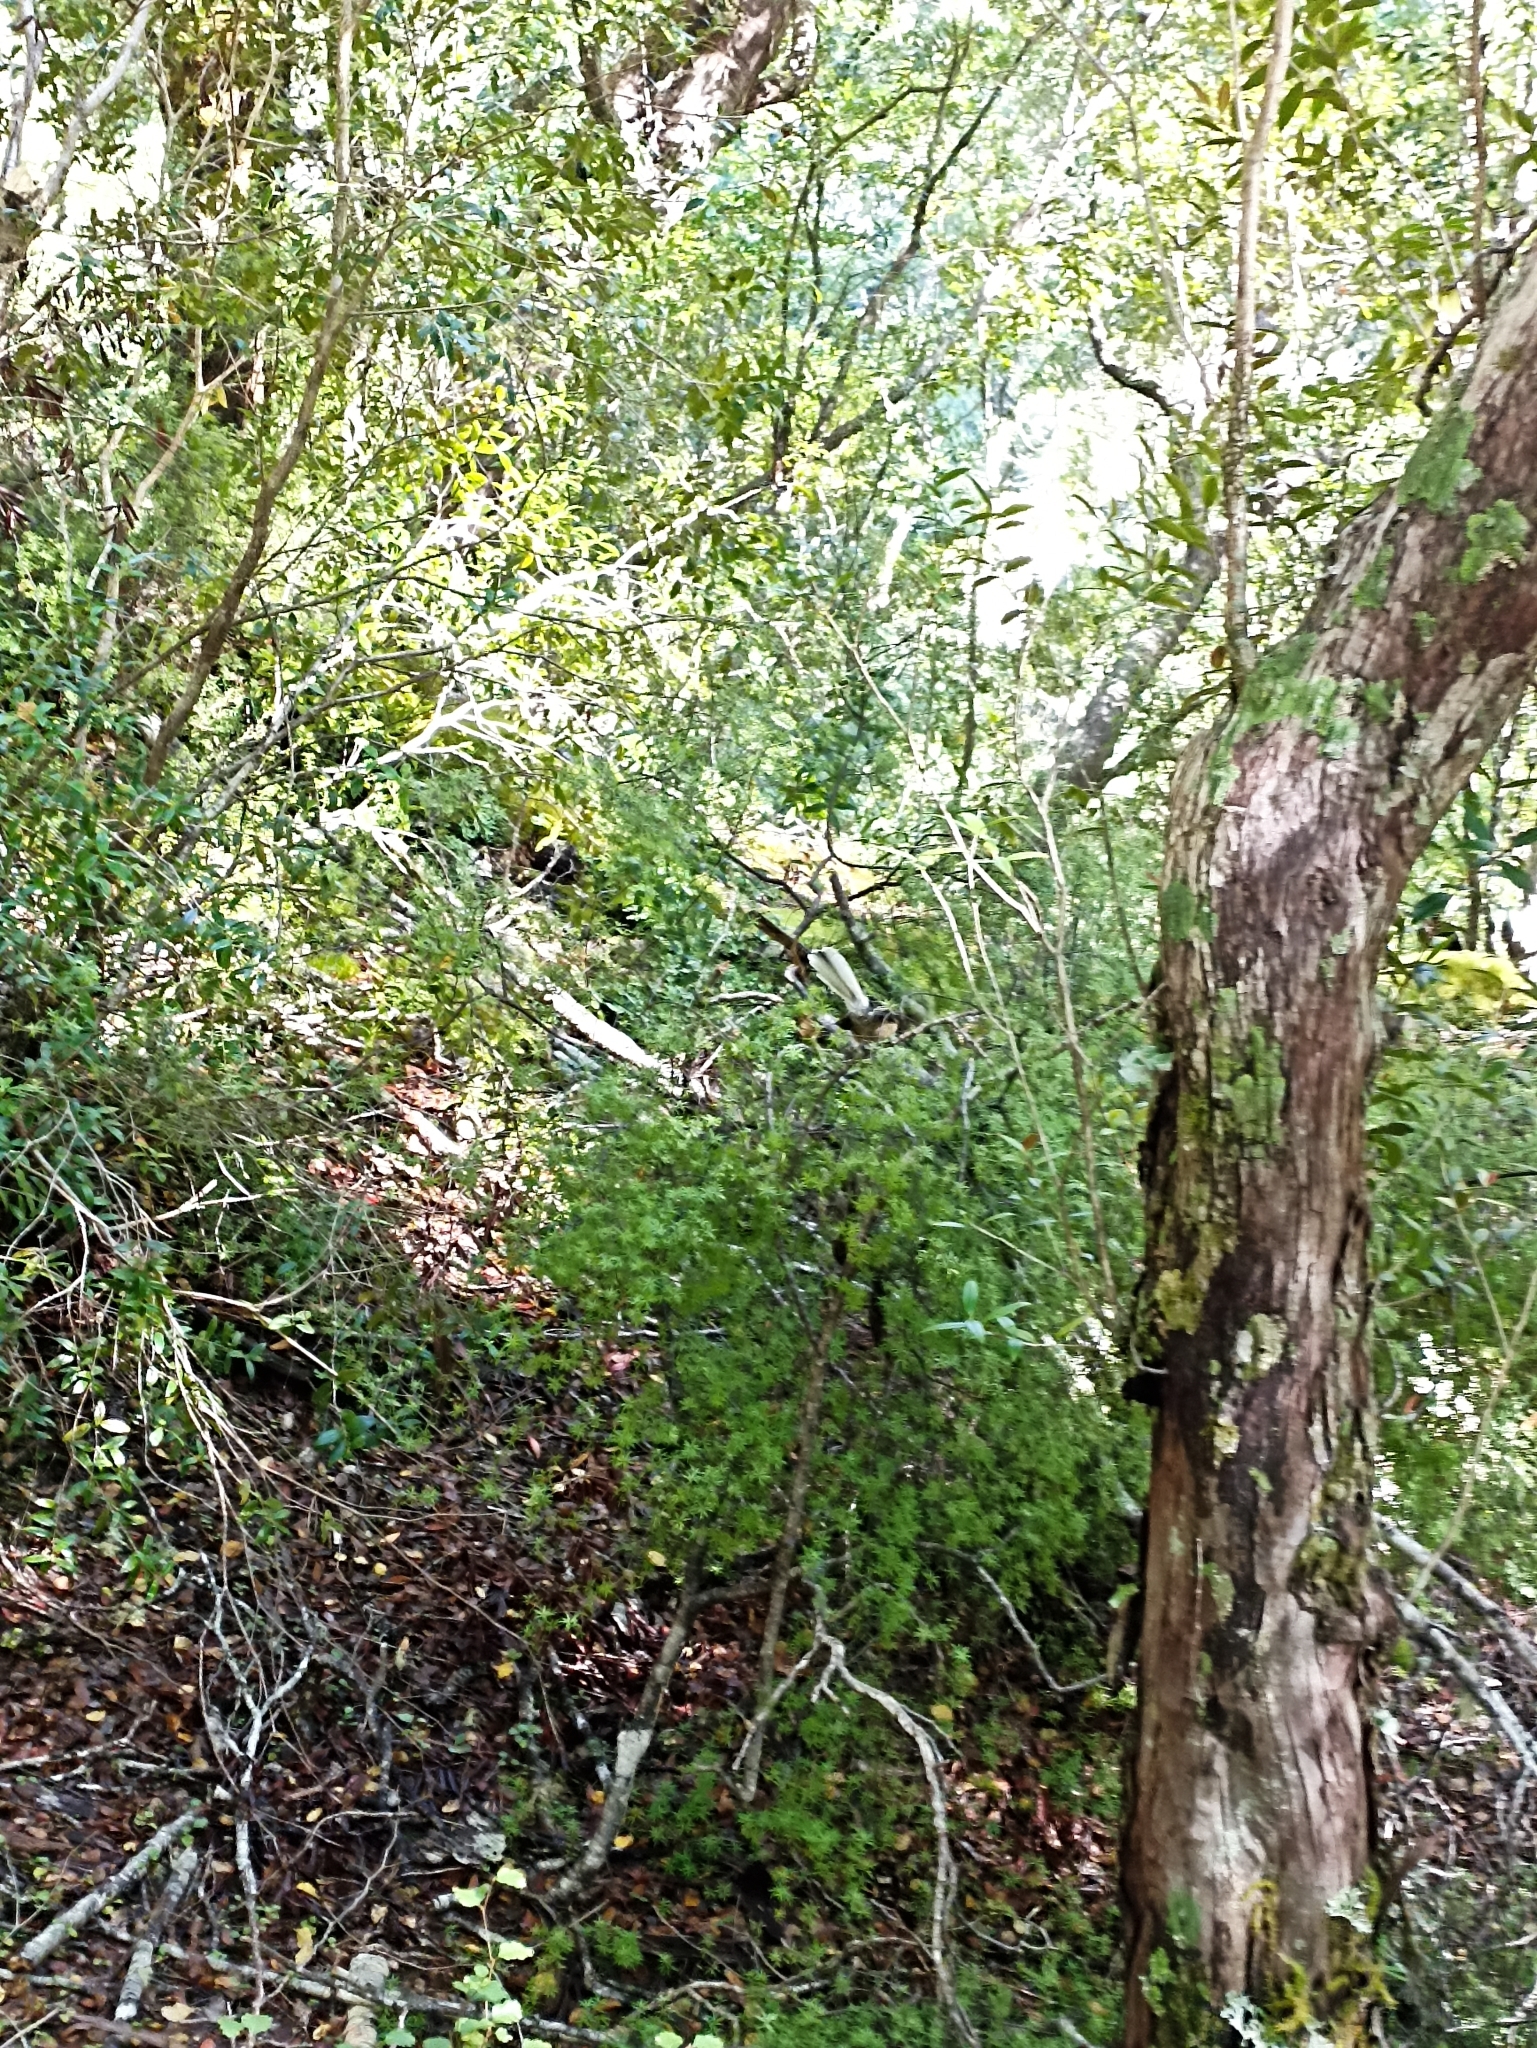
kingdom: Animalia
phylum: Chordata
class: Aves
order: Passeriformes
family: Rhipiduridae
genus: Rhipidura
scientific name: Rhipidura fuliginosa
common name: New zealand fantail
